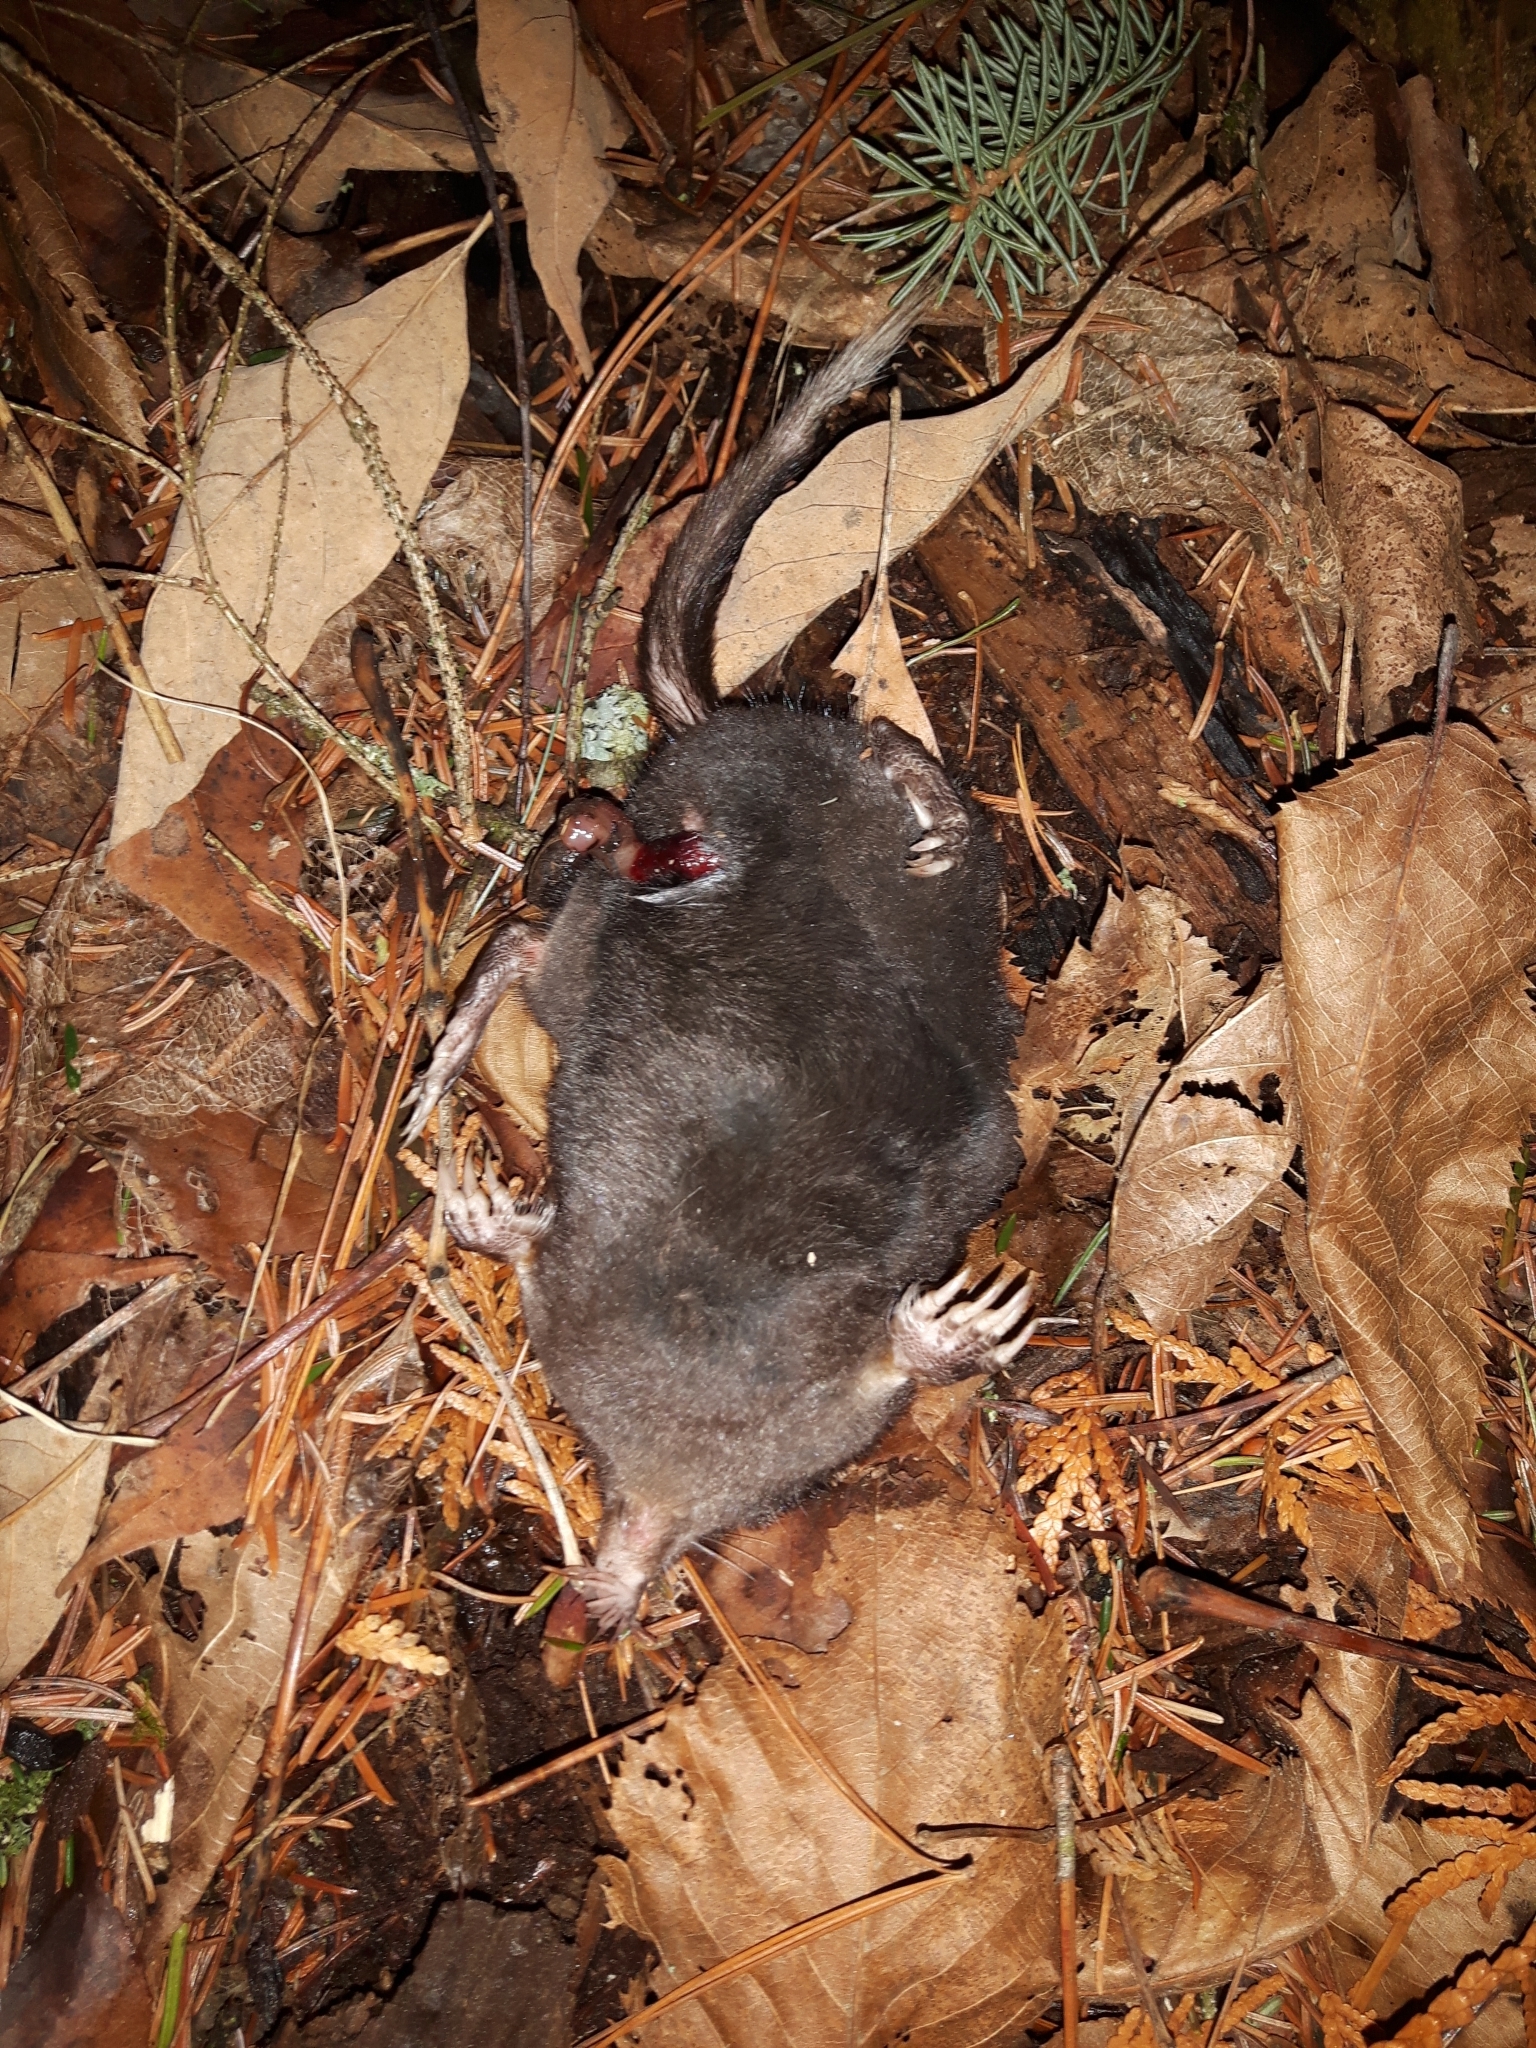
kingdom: Animalia
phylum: Chordata
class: Mammalia
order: Soricomorpha
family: Talpidae
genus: Condylura
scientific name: Condylura cristata
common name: Star-nosed mole
